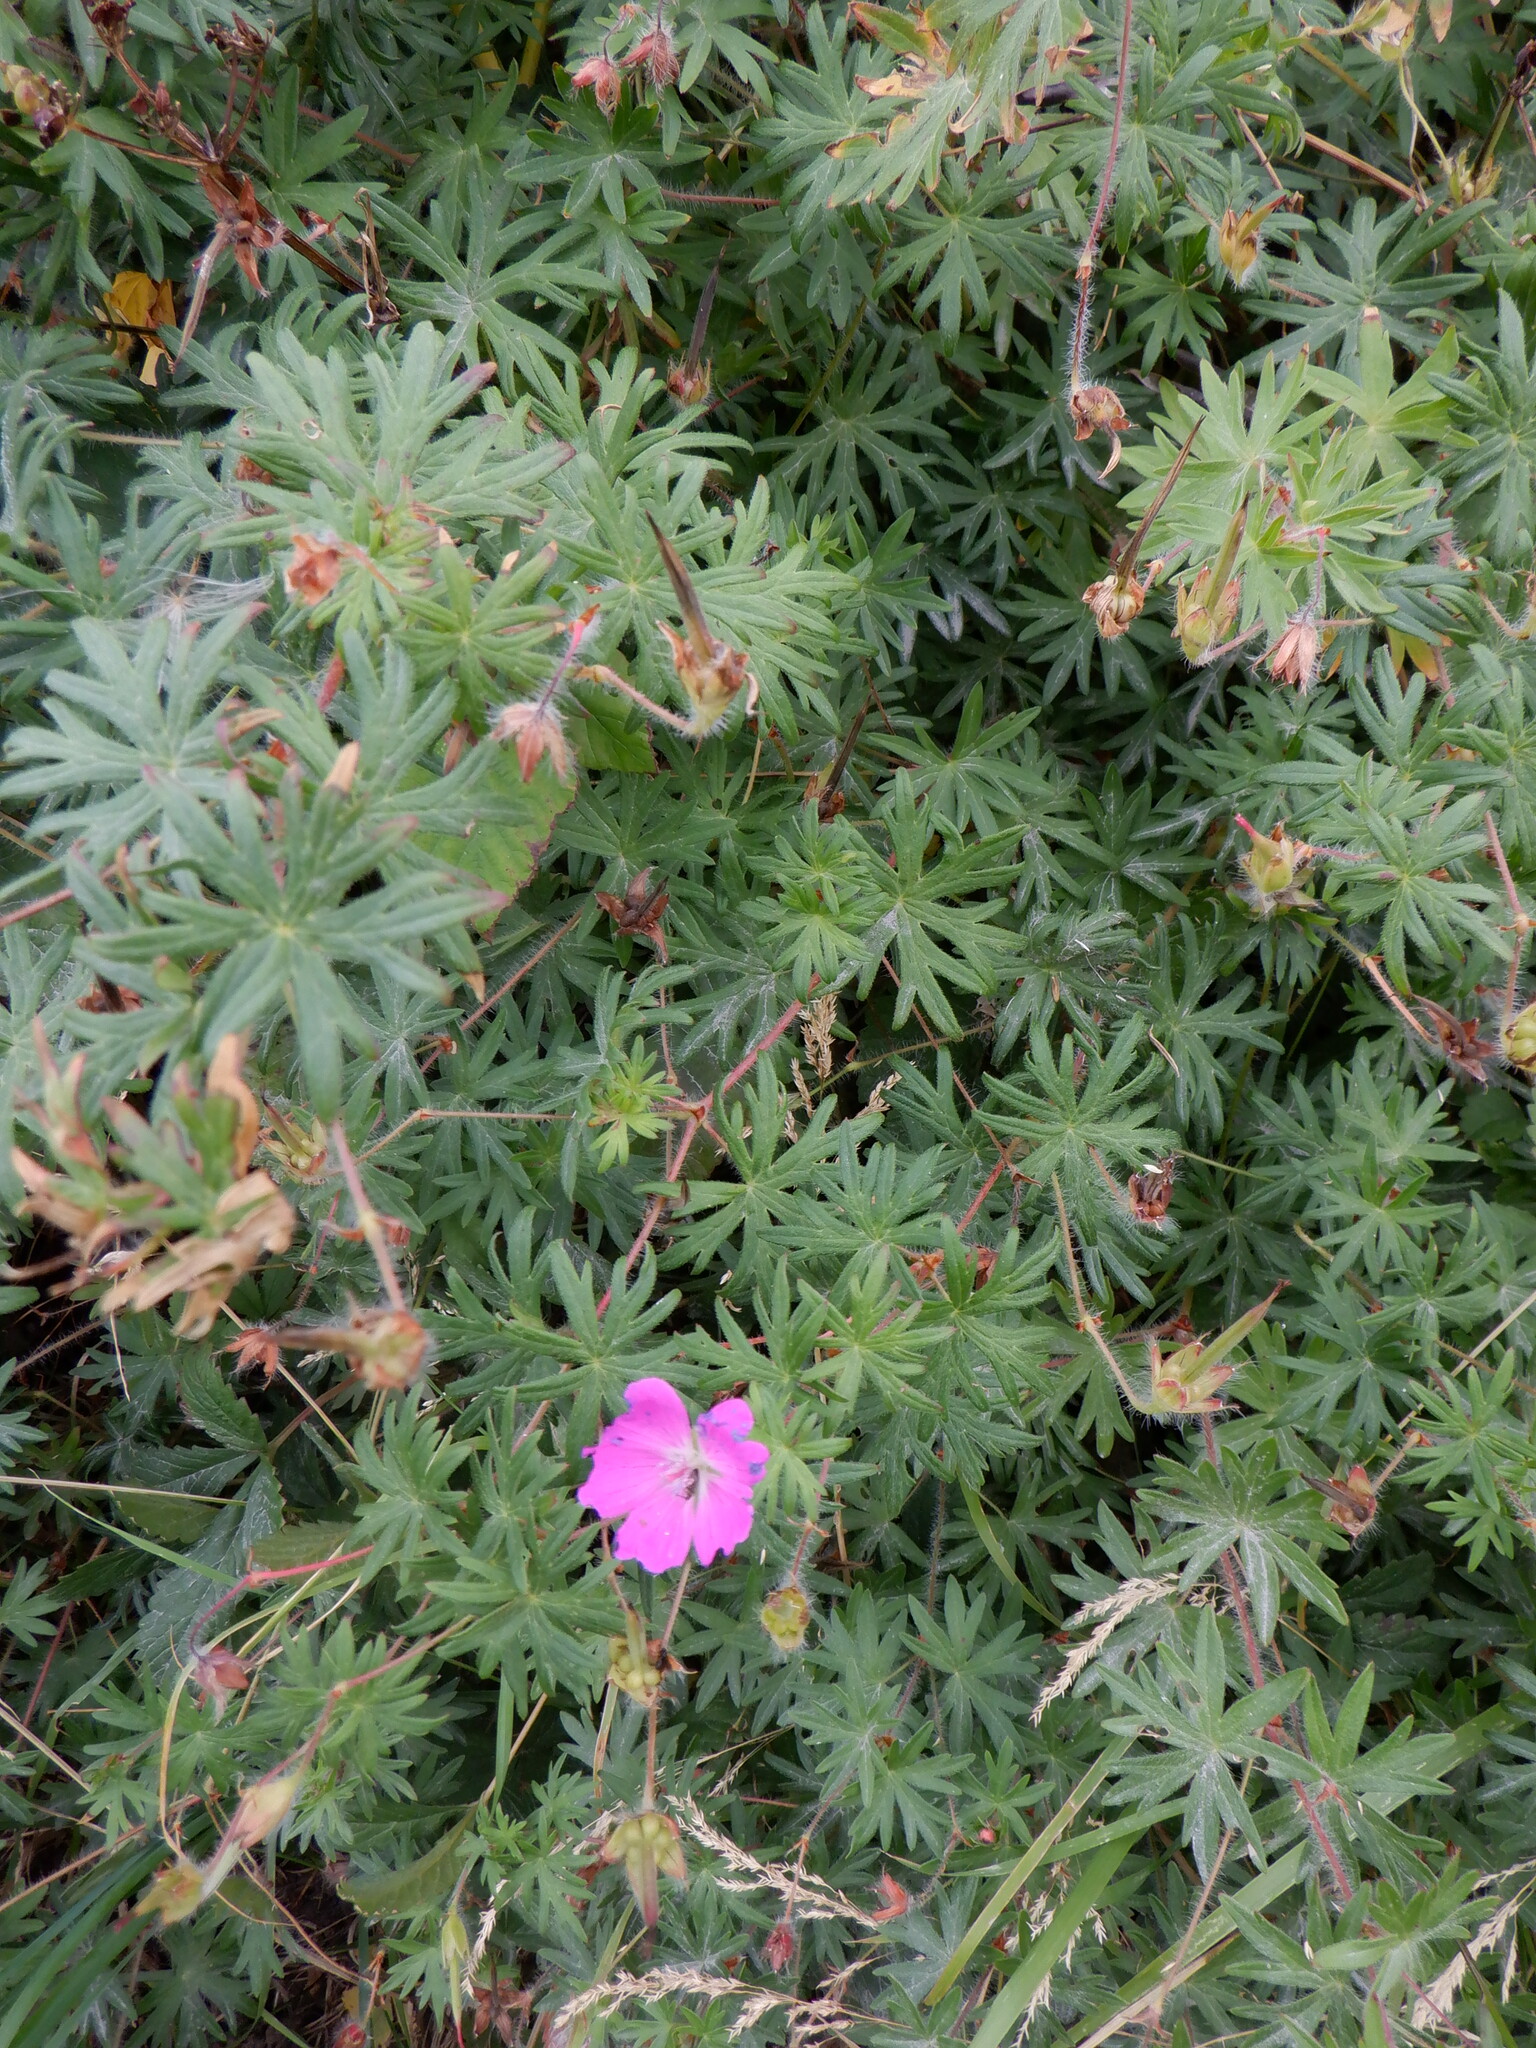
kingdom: Plantae
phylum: Tracheophyta
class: Magnoliopsida
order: Geraniales
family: Geraniaceae
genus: Geranium
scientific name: Geranium sanguineum
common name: Bloody crane's-bill
